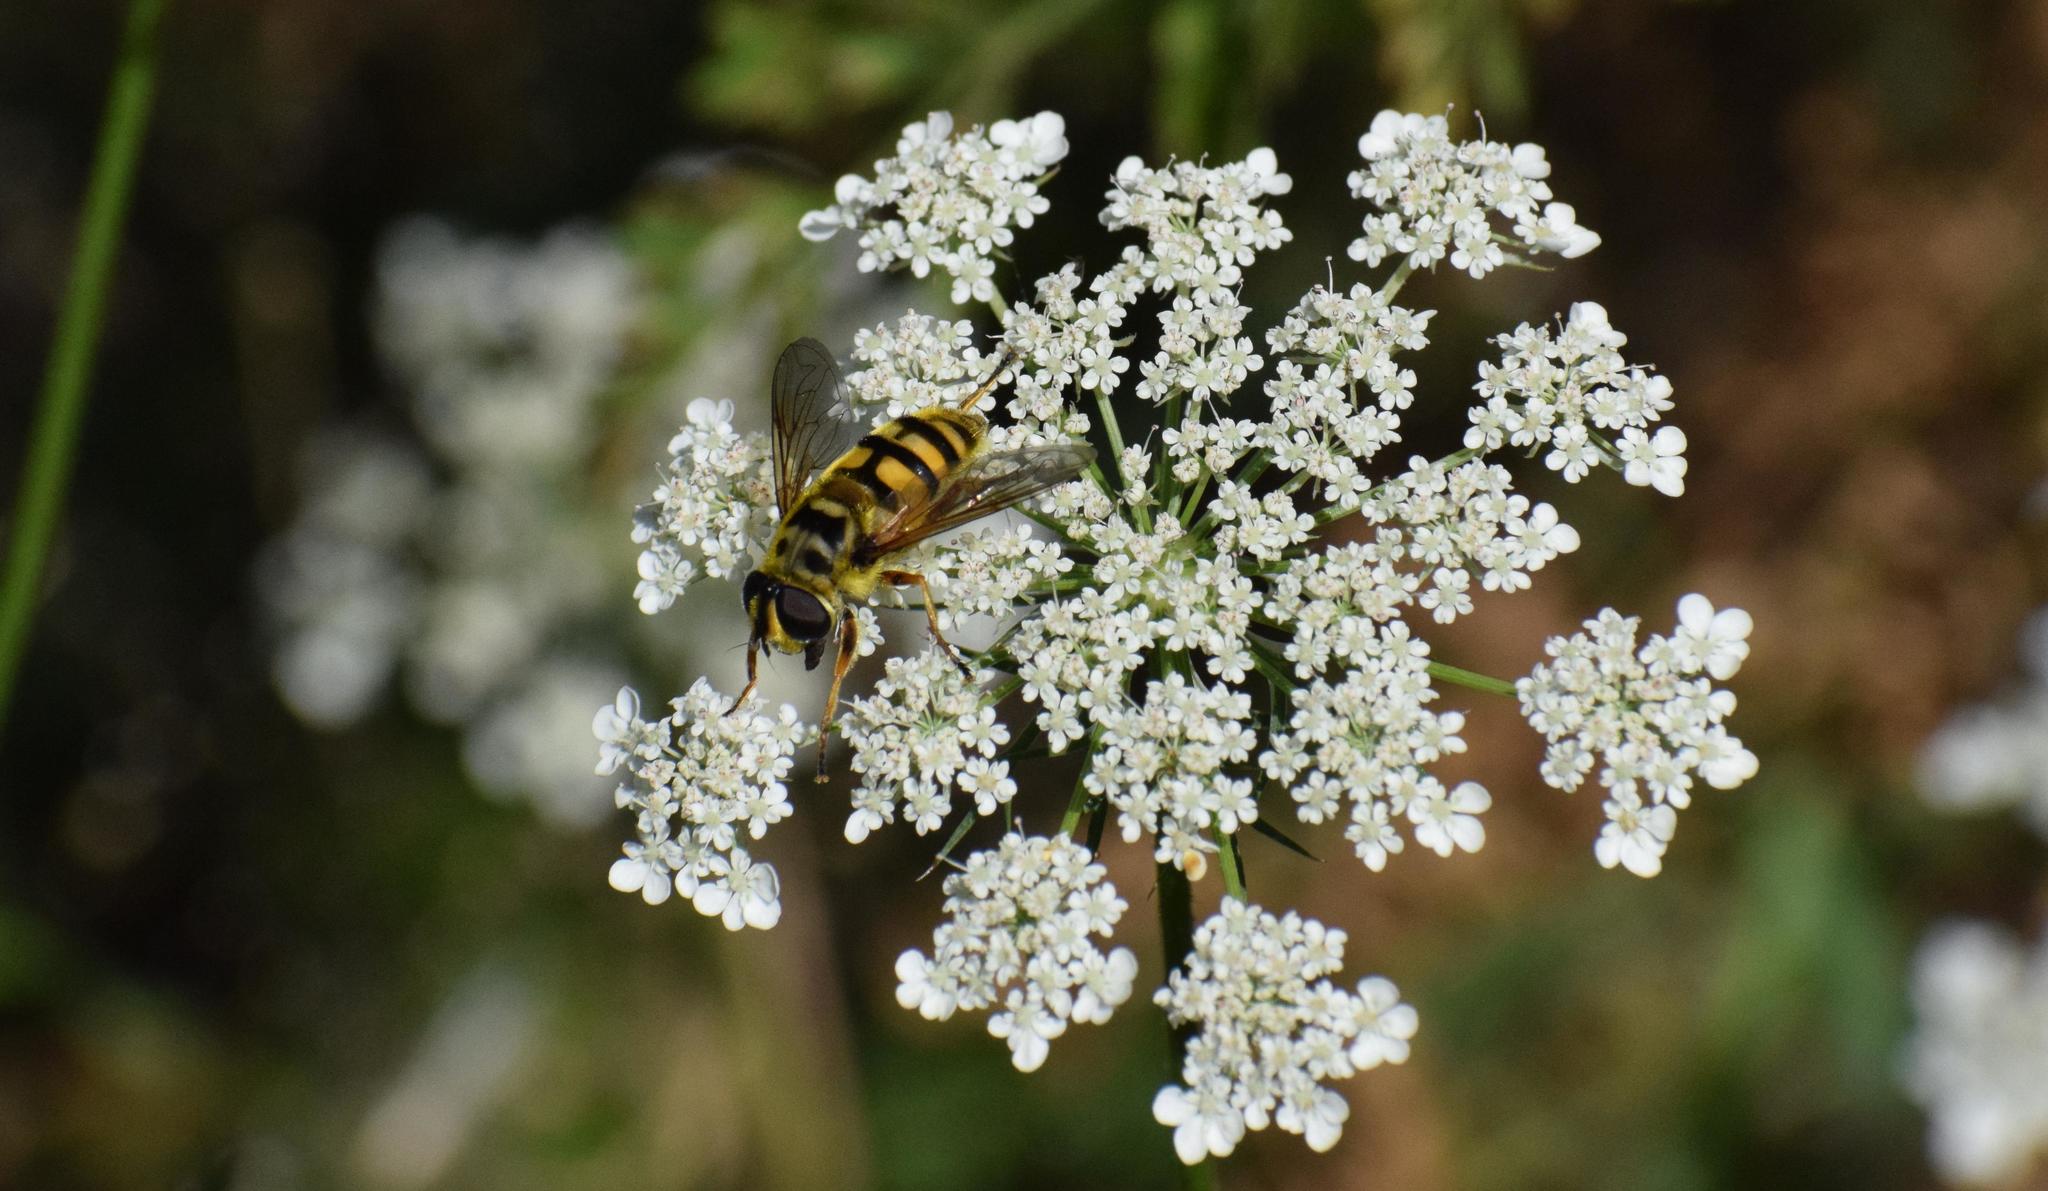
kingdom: Animalia
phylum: Arthropoda
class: Insecta
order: Diptera
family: Syrphidae
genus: Myathropa
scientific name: Myathropa florea
